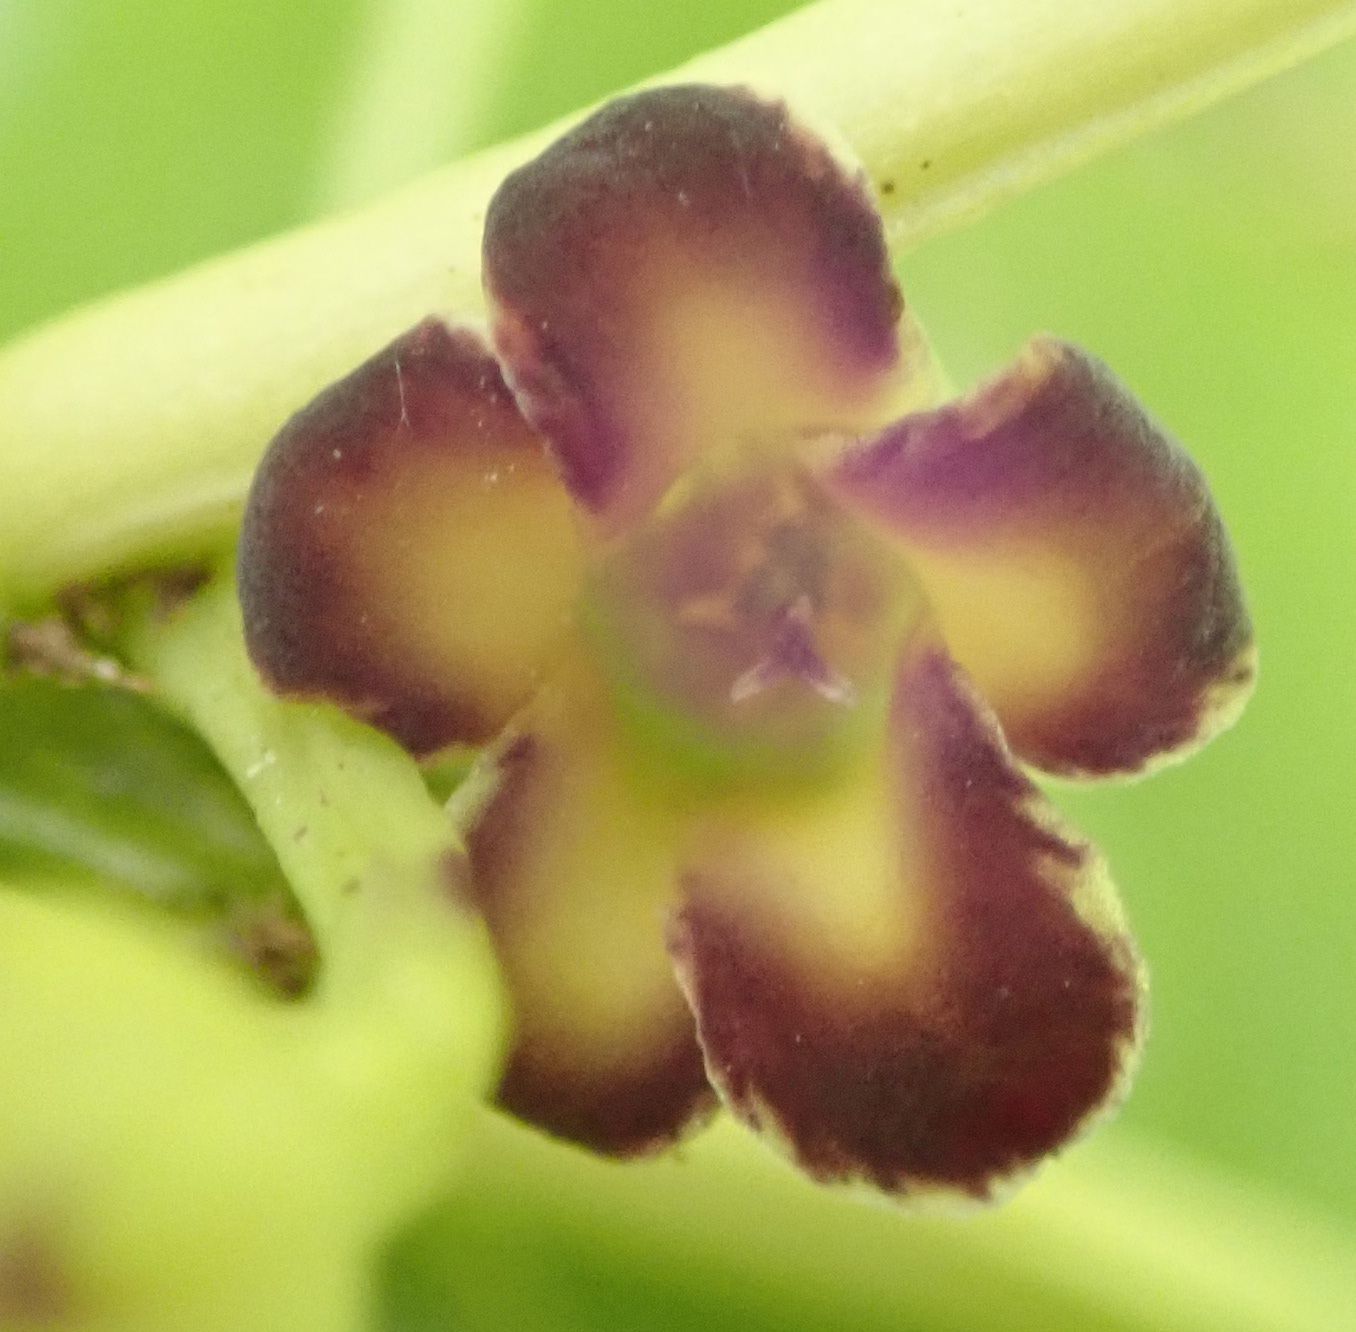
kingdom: Plantae
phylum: Tracheophyta
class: Magnoliopsida
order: Malpighiales
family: Violaceae
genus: Melicytus
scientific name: Melicytus lanceolatus
